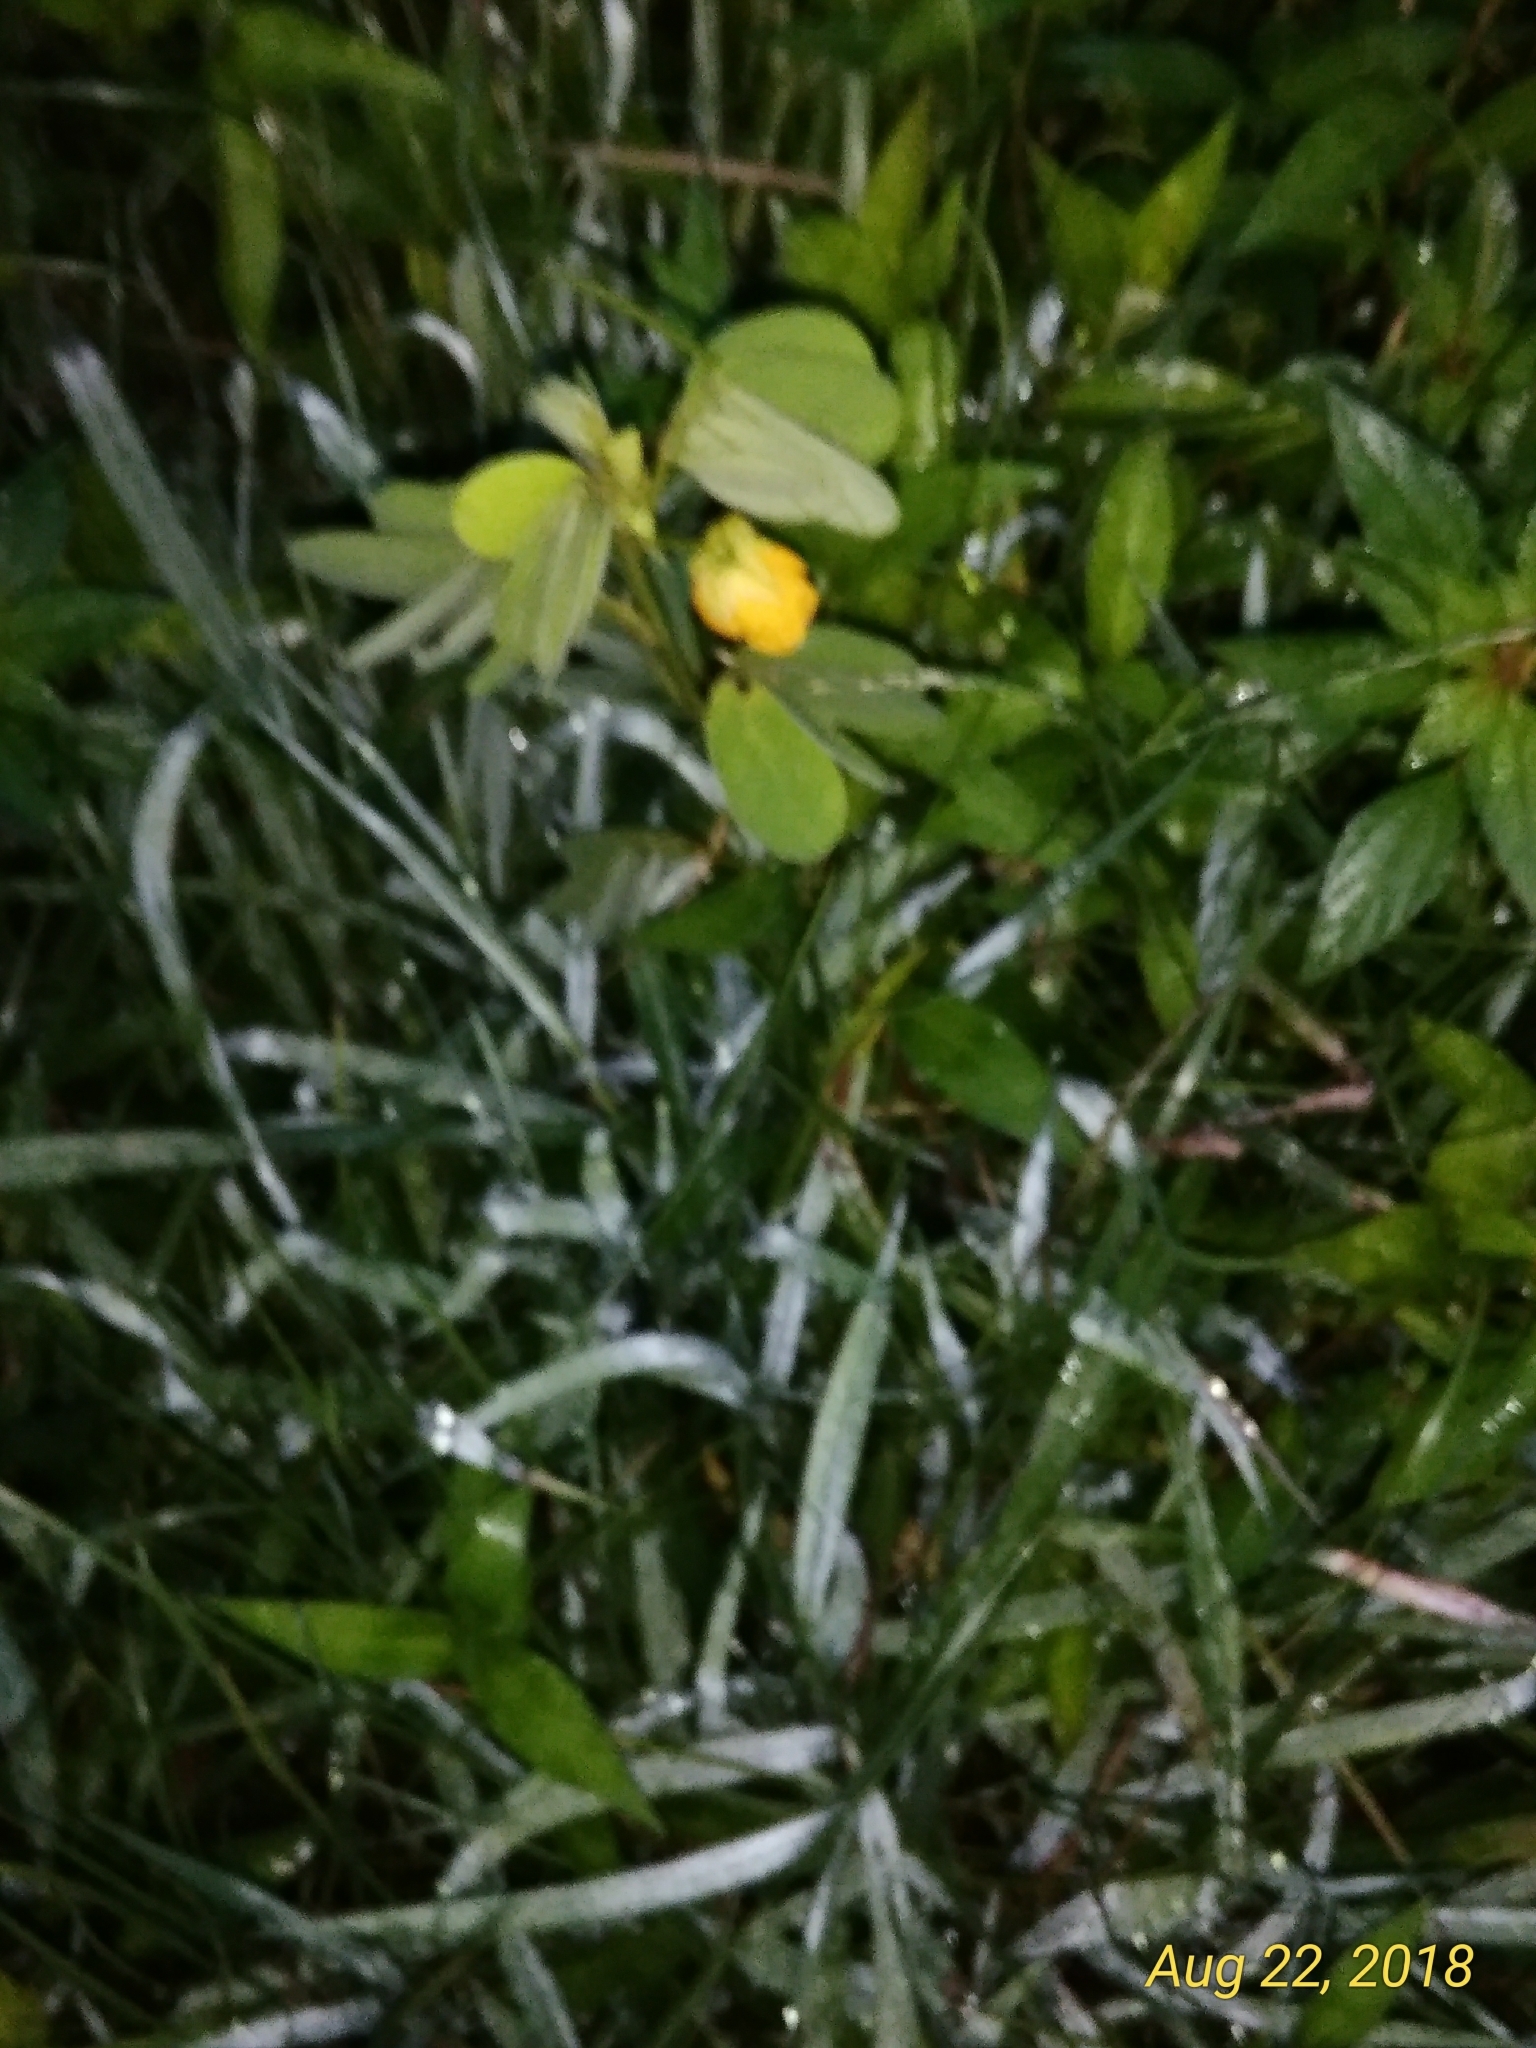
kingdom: Plantae
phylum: Tracheophyta
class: Magnoliopsida
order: Fabales
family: Fabaceae
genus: Senna
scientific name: Senna obtusifolia
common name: Java-bean
